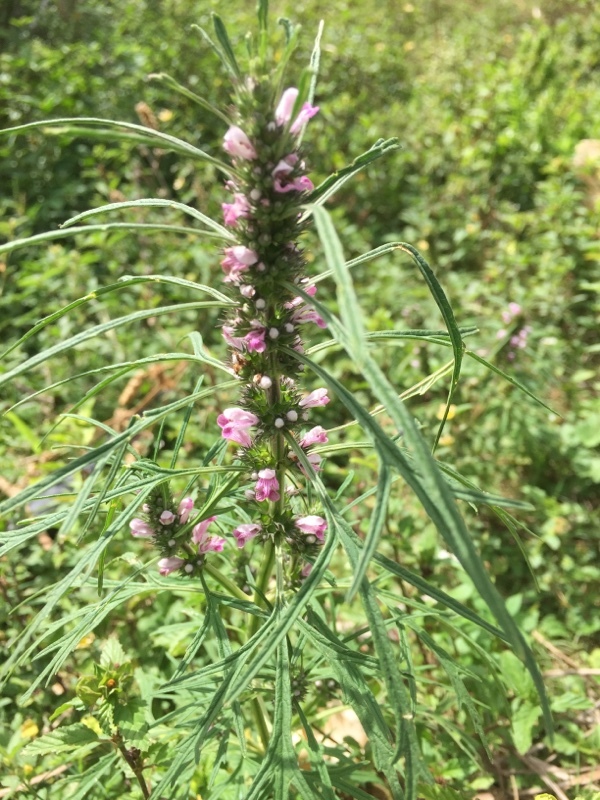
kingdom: Plantae
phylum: Tracheophyta
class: Magnoliopsida
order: Lamiales
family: Lamiaceae
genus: Leonurus
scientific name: Leonurus japonicus
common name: Honeyweed
